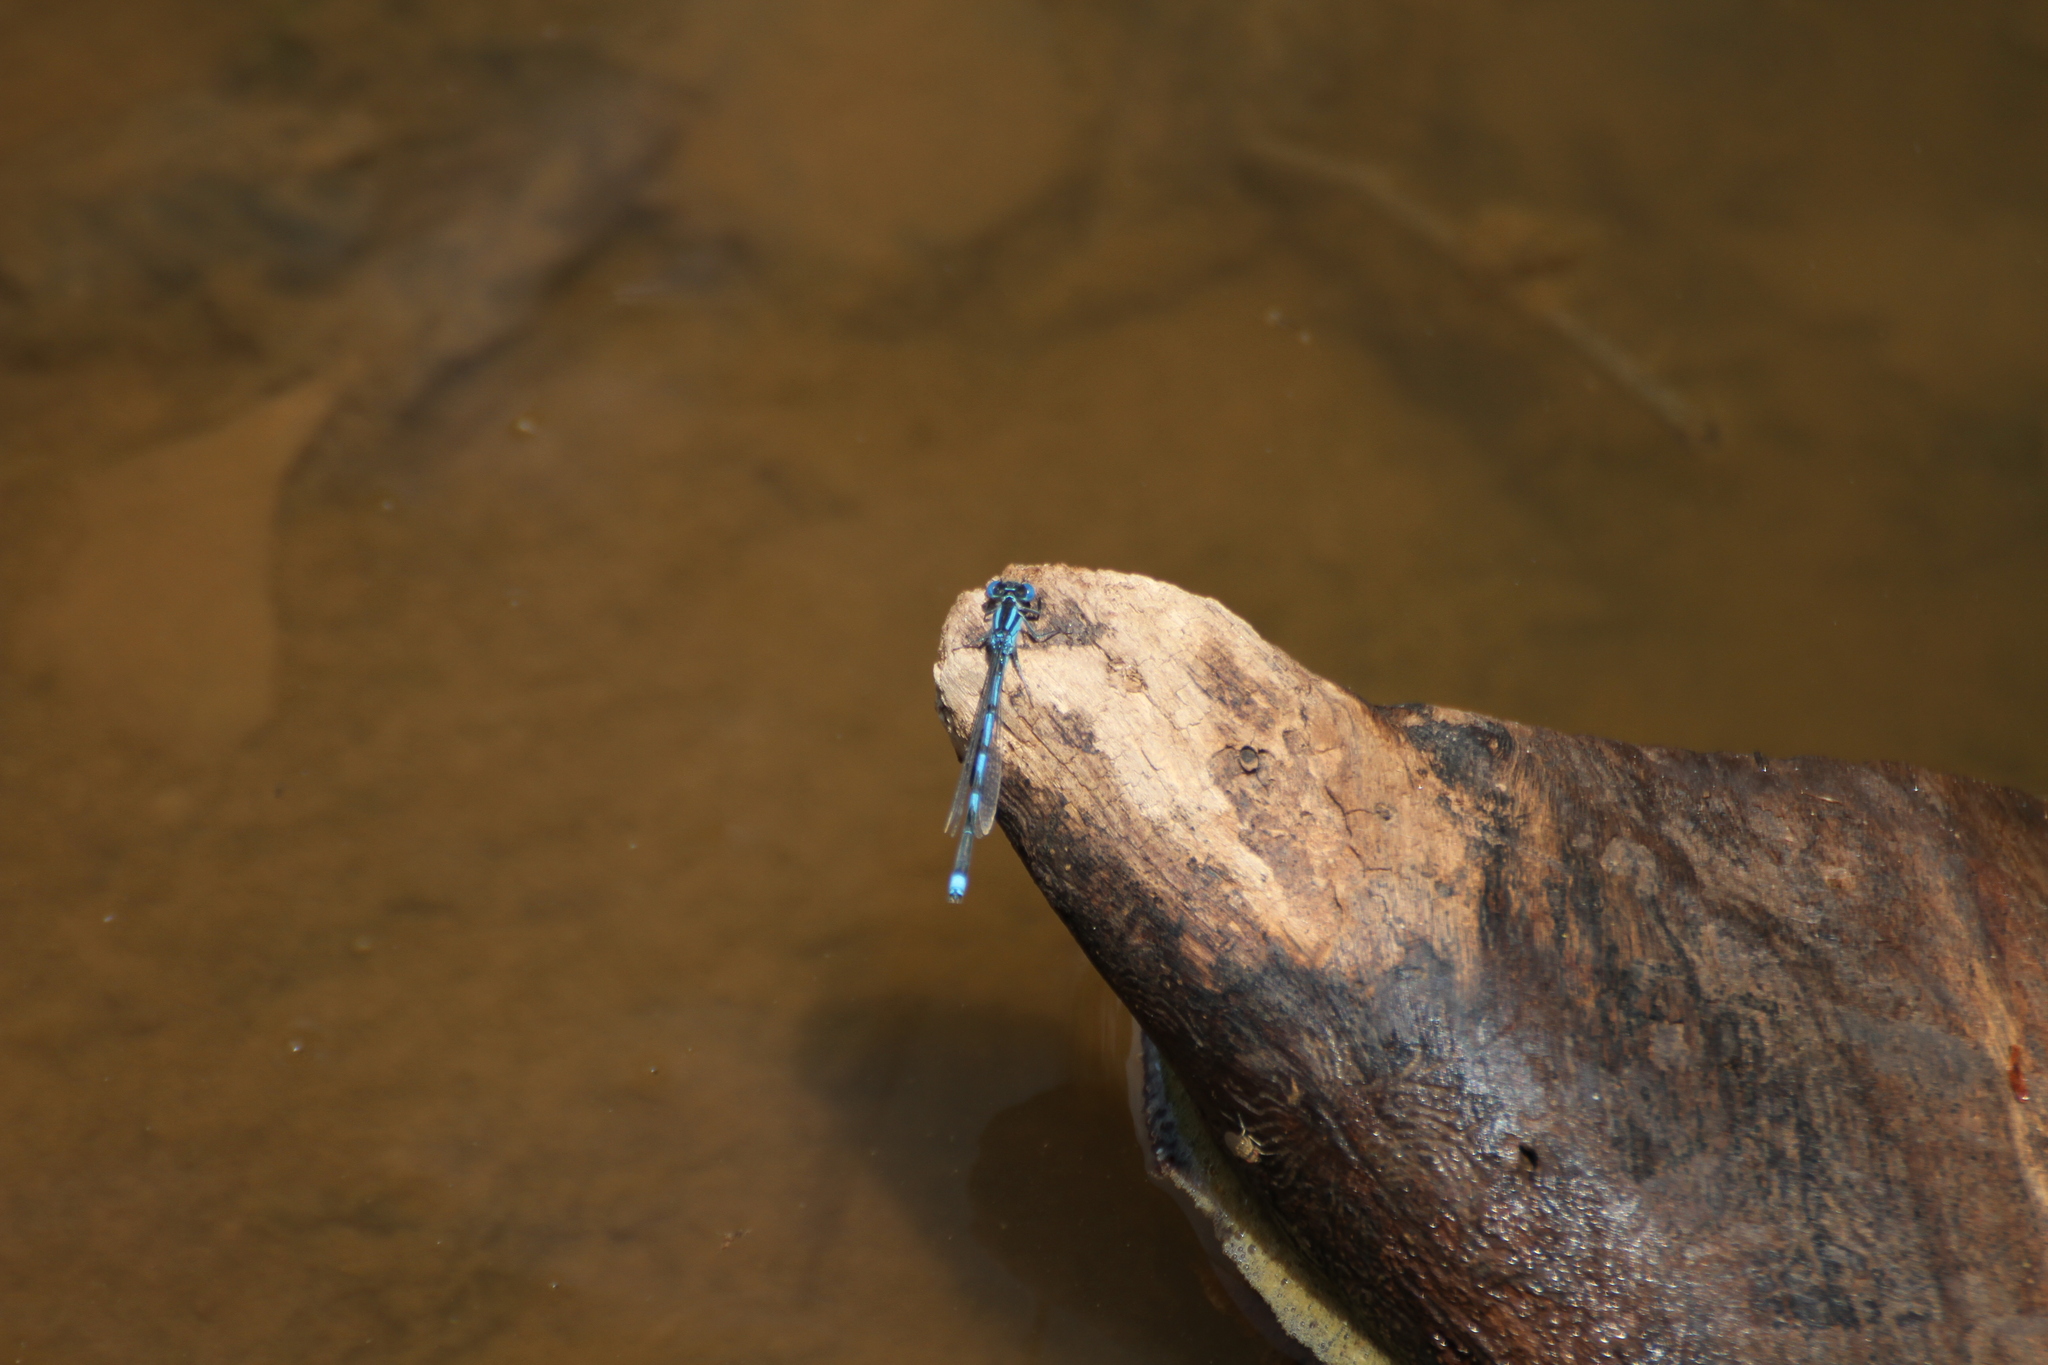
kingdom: Animalia
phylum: Arthropoda
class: Insecta
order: Odonata
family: Coenagrionidae
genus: Erythromma
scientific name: Erythromma lindenii
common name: Blue-eye
